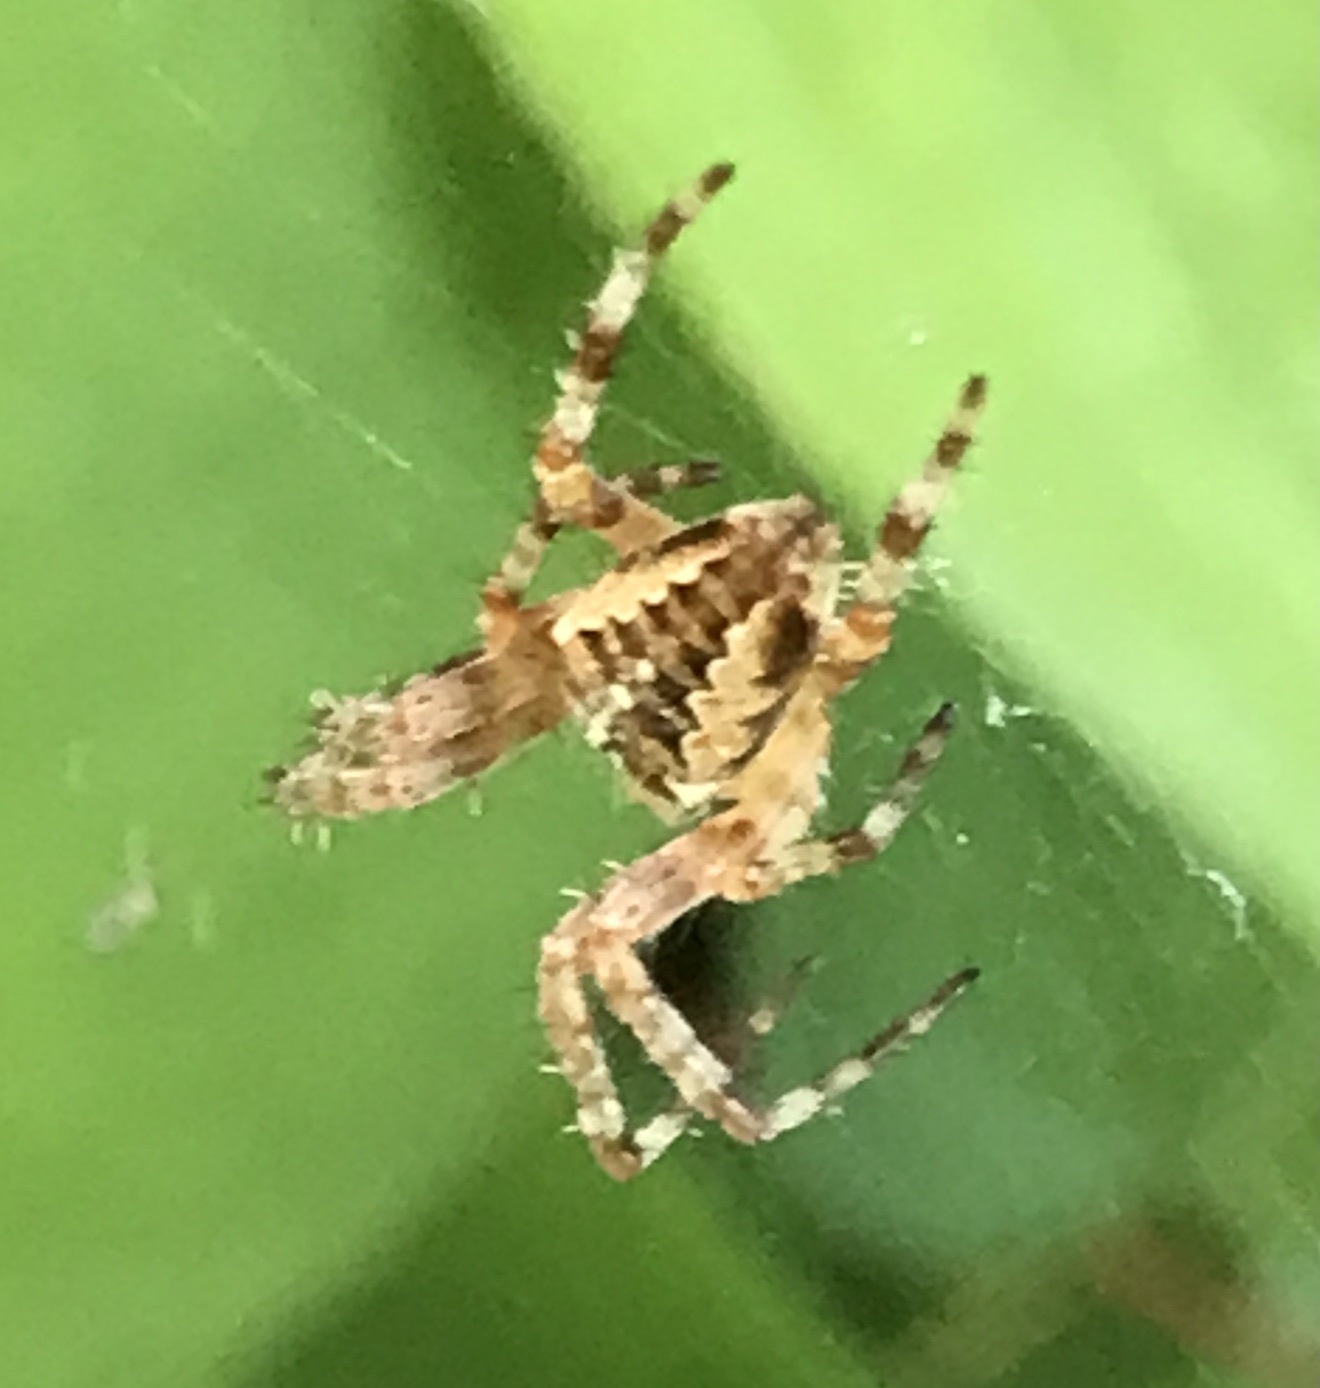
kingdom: Animalia
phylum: Arthropoda
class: Arachnida
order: Araneae
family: Araneidae
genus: Araneus
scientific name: Araneus diadematus
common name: Cross orbweaver
